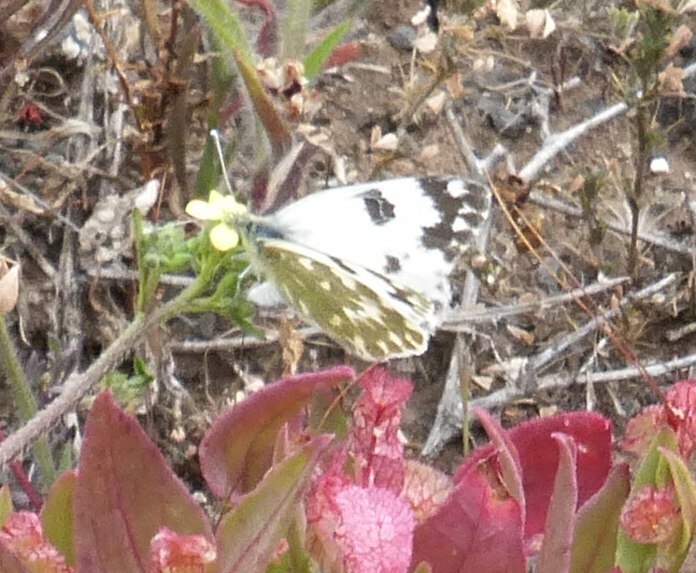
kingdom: Animalia
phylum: Arthropoda
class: Insecta
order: Lepidoptera
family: Pieridae
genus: Pontia
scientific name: Pontia daplidice
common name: Bath white
